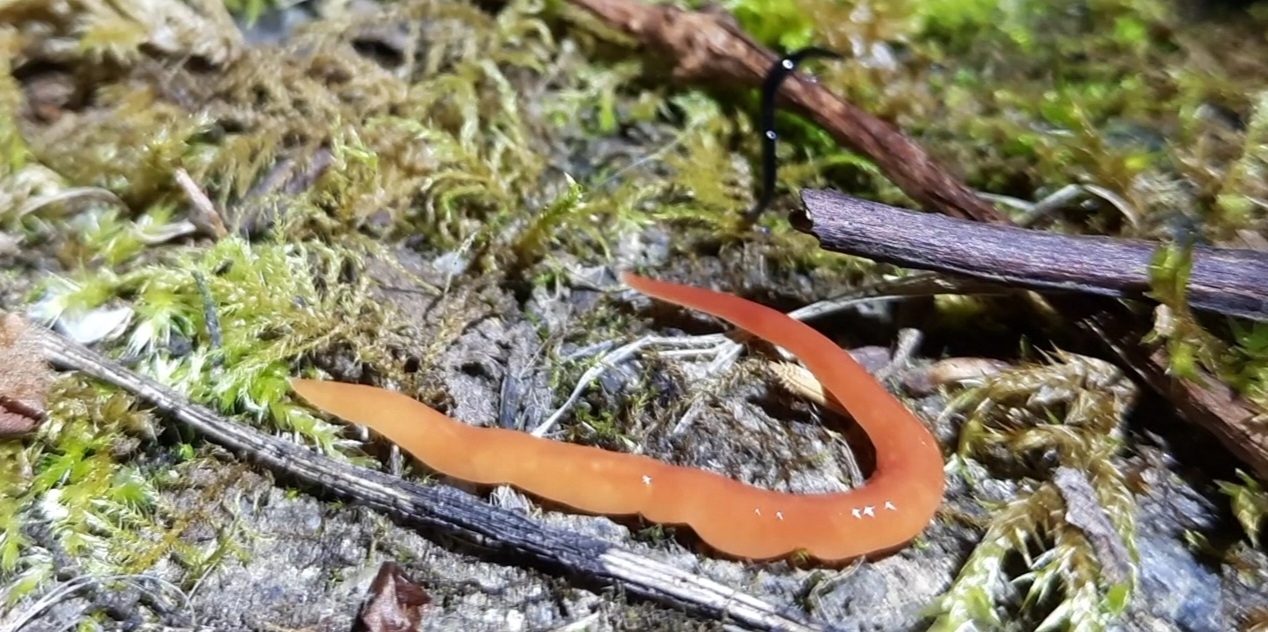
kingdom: Animalia
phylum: Platyhelminthes
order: Tricladida
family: Geoplanidae
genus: Australoplana
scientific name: Australoplana sanguinea
